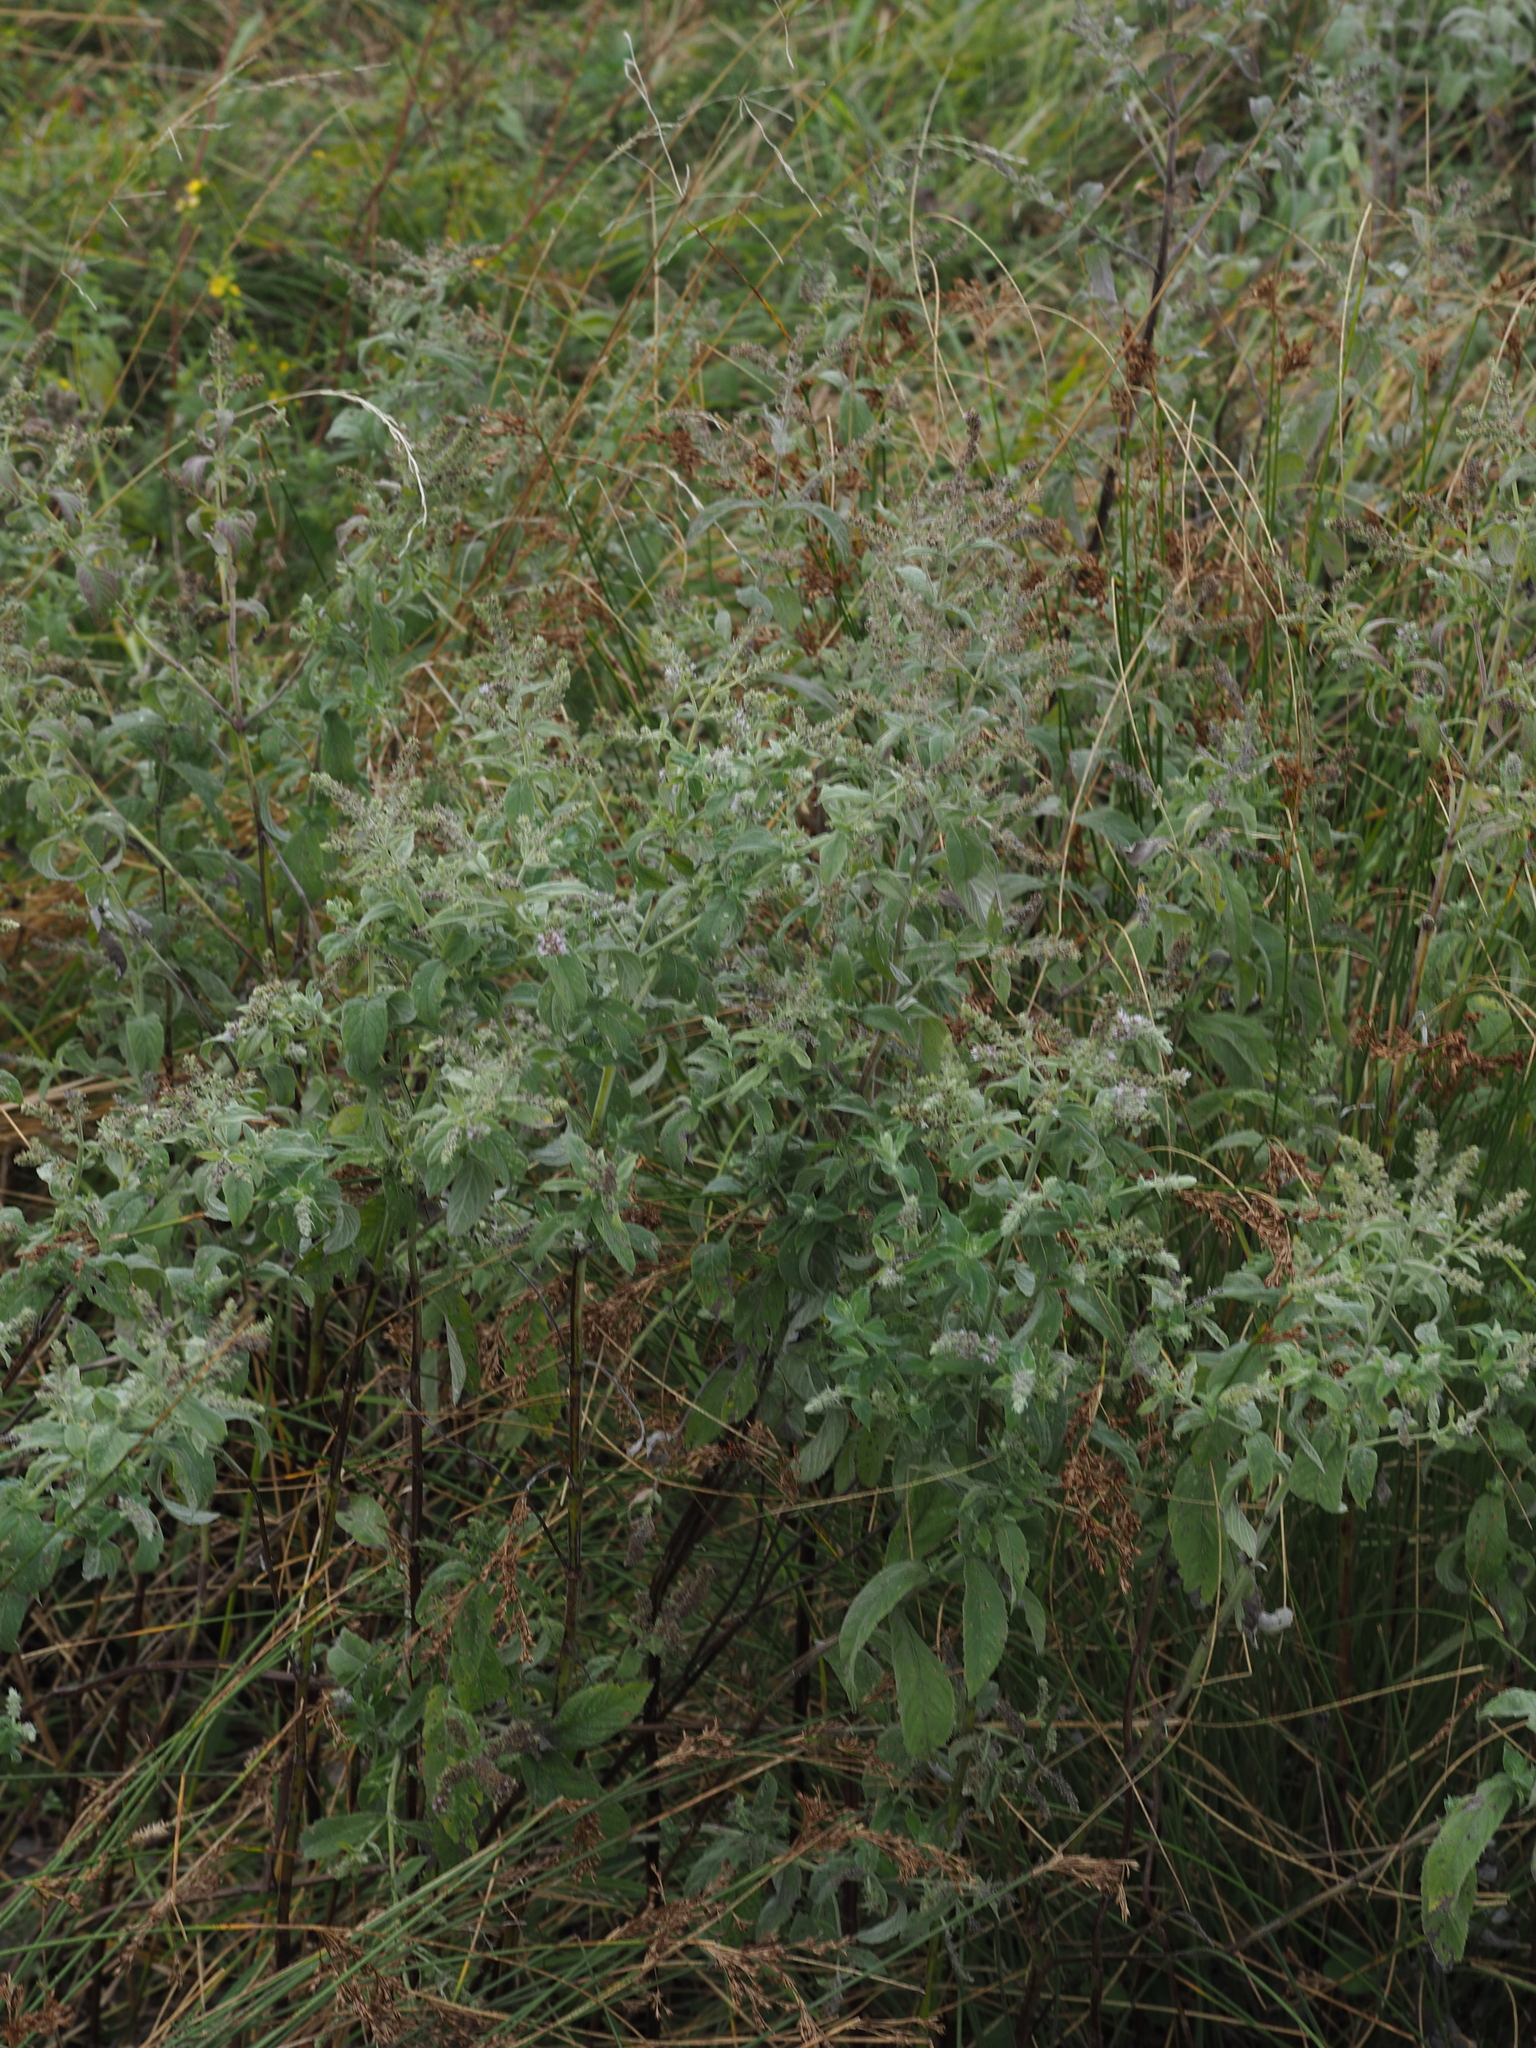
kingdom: Plantae
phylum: Tracheophyta
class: Magnoliopsida
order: Lamiales
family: Lamiaceae
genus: Mentha
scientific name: Mentha longifolia
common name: Horse mint
